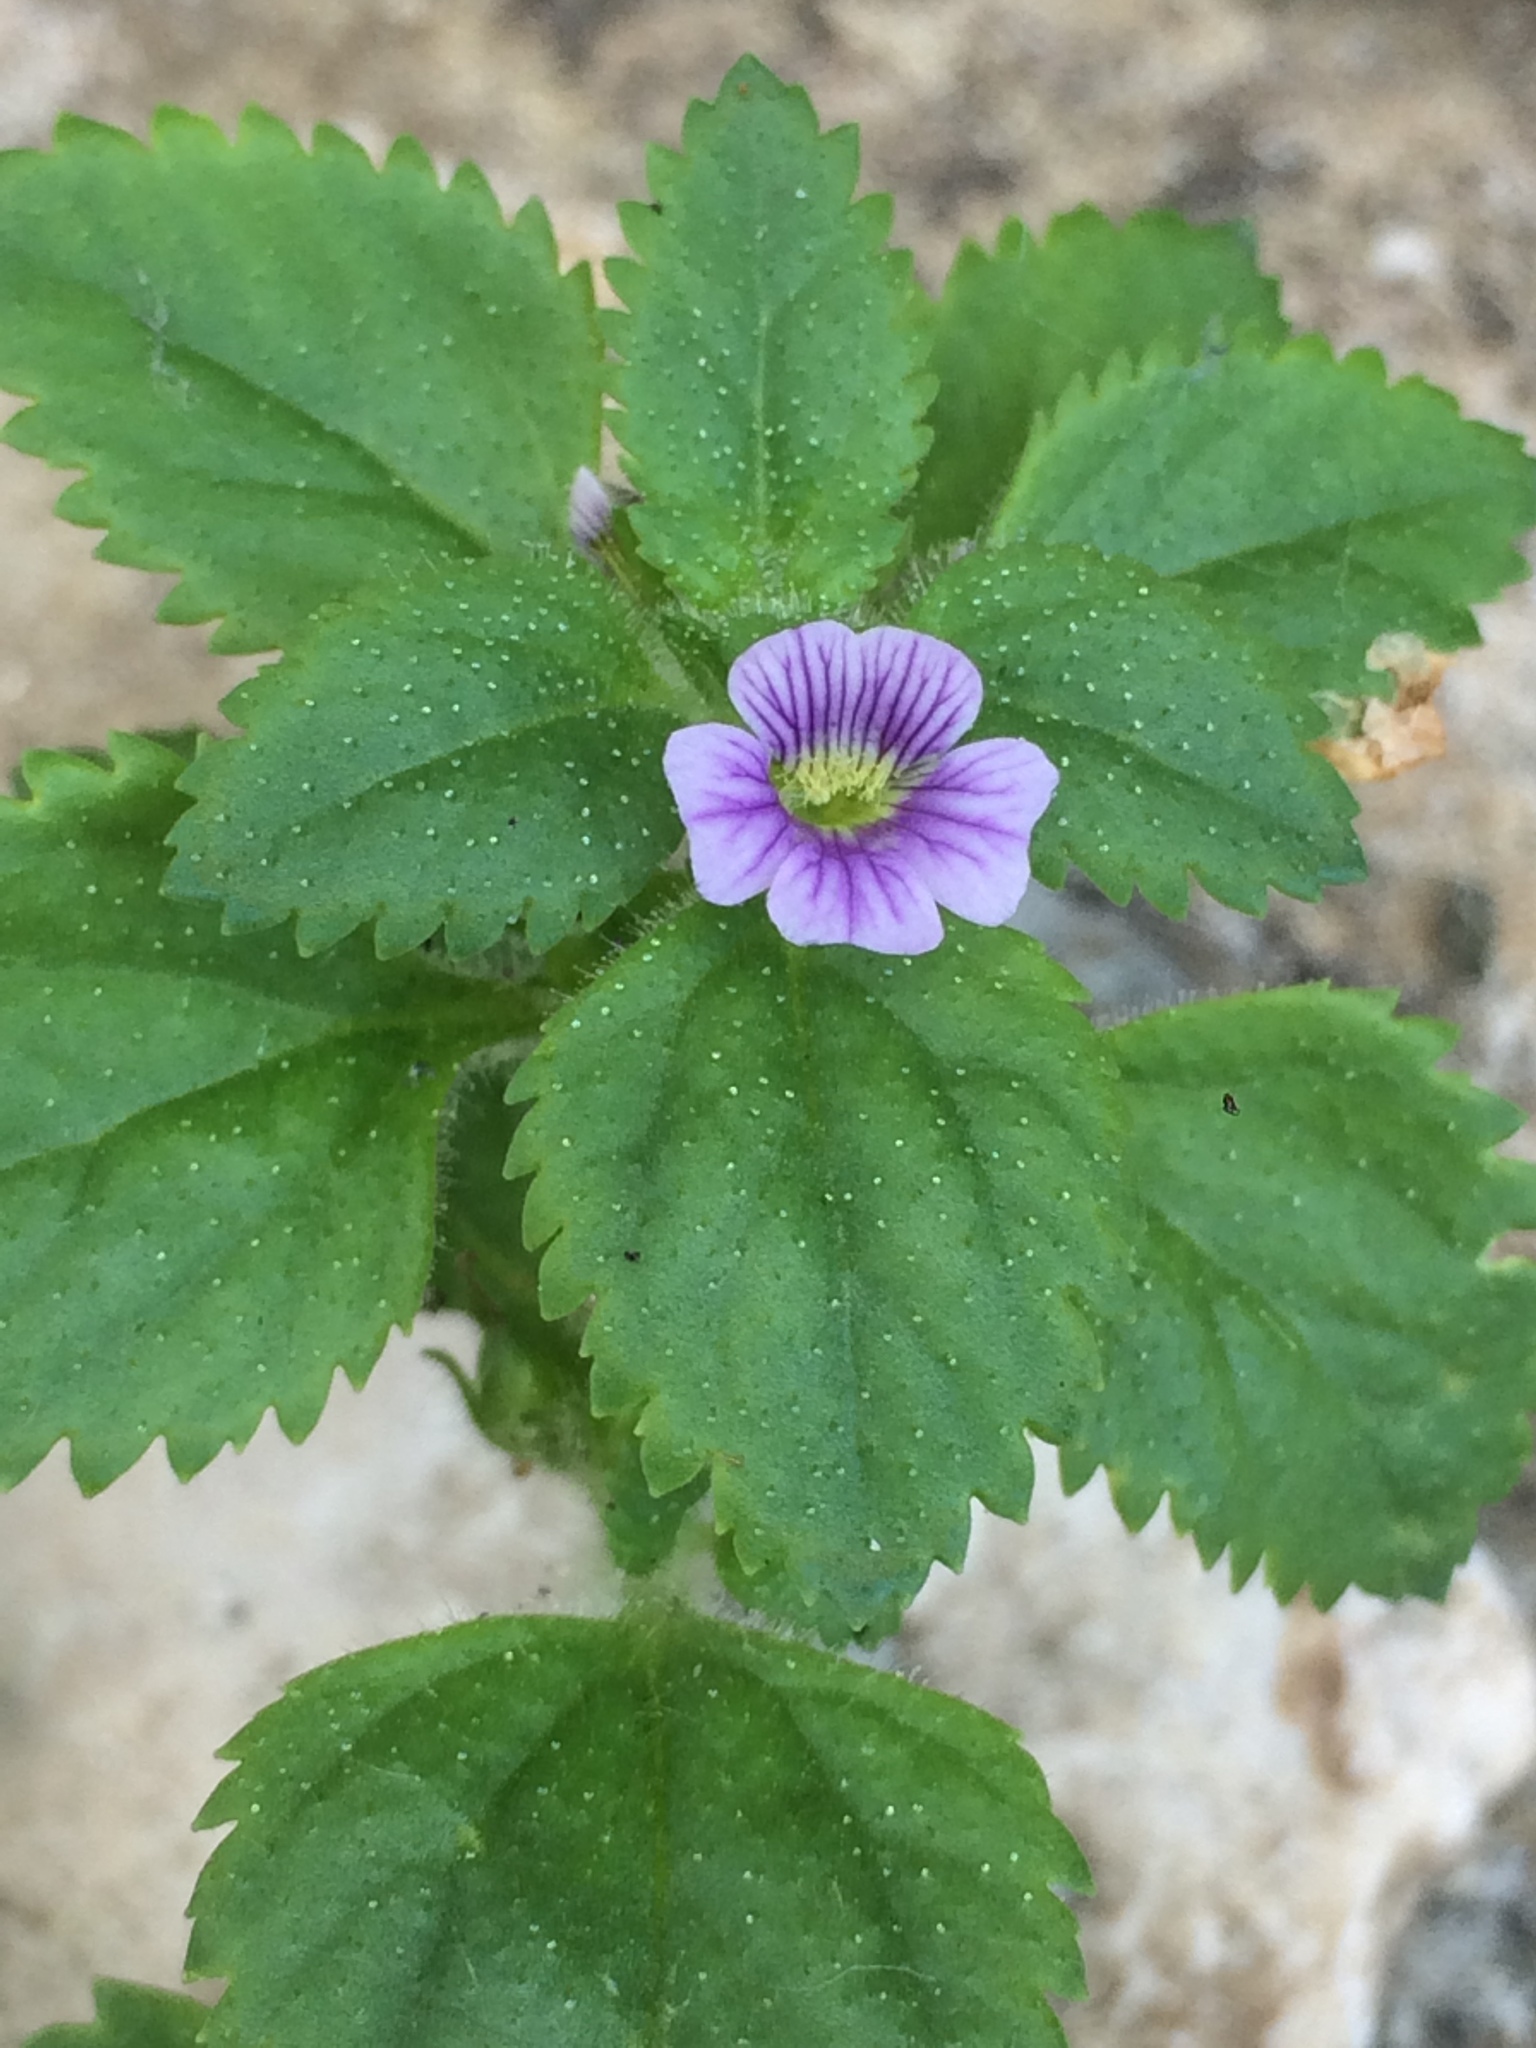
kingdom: Plantae
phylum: Tracheophyta
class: Magnoliopsida
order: Lamiales
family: Plantaginaceae
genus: Stemodia
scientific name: Stemodia verticillata
